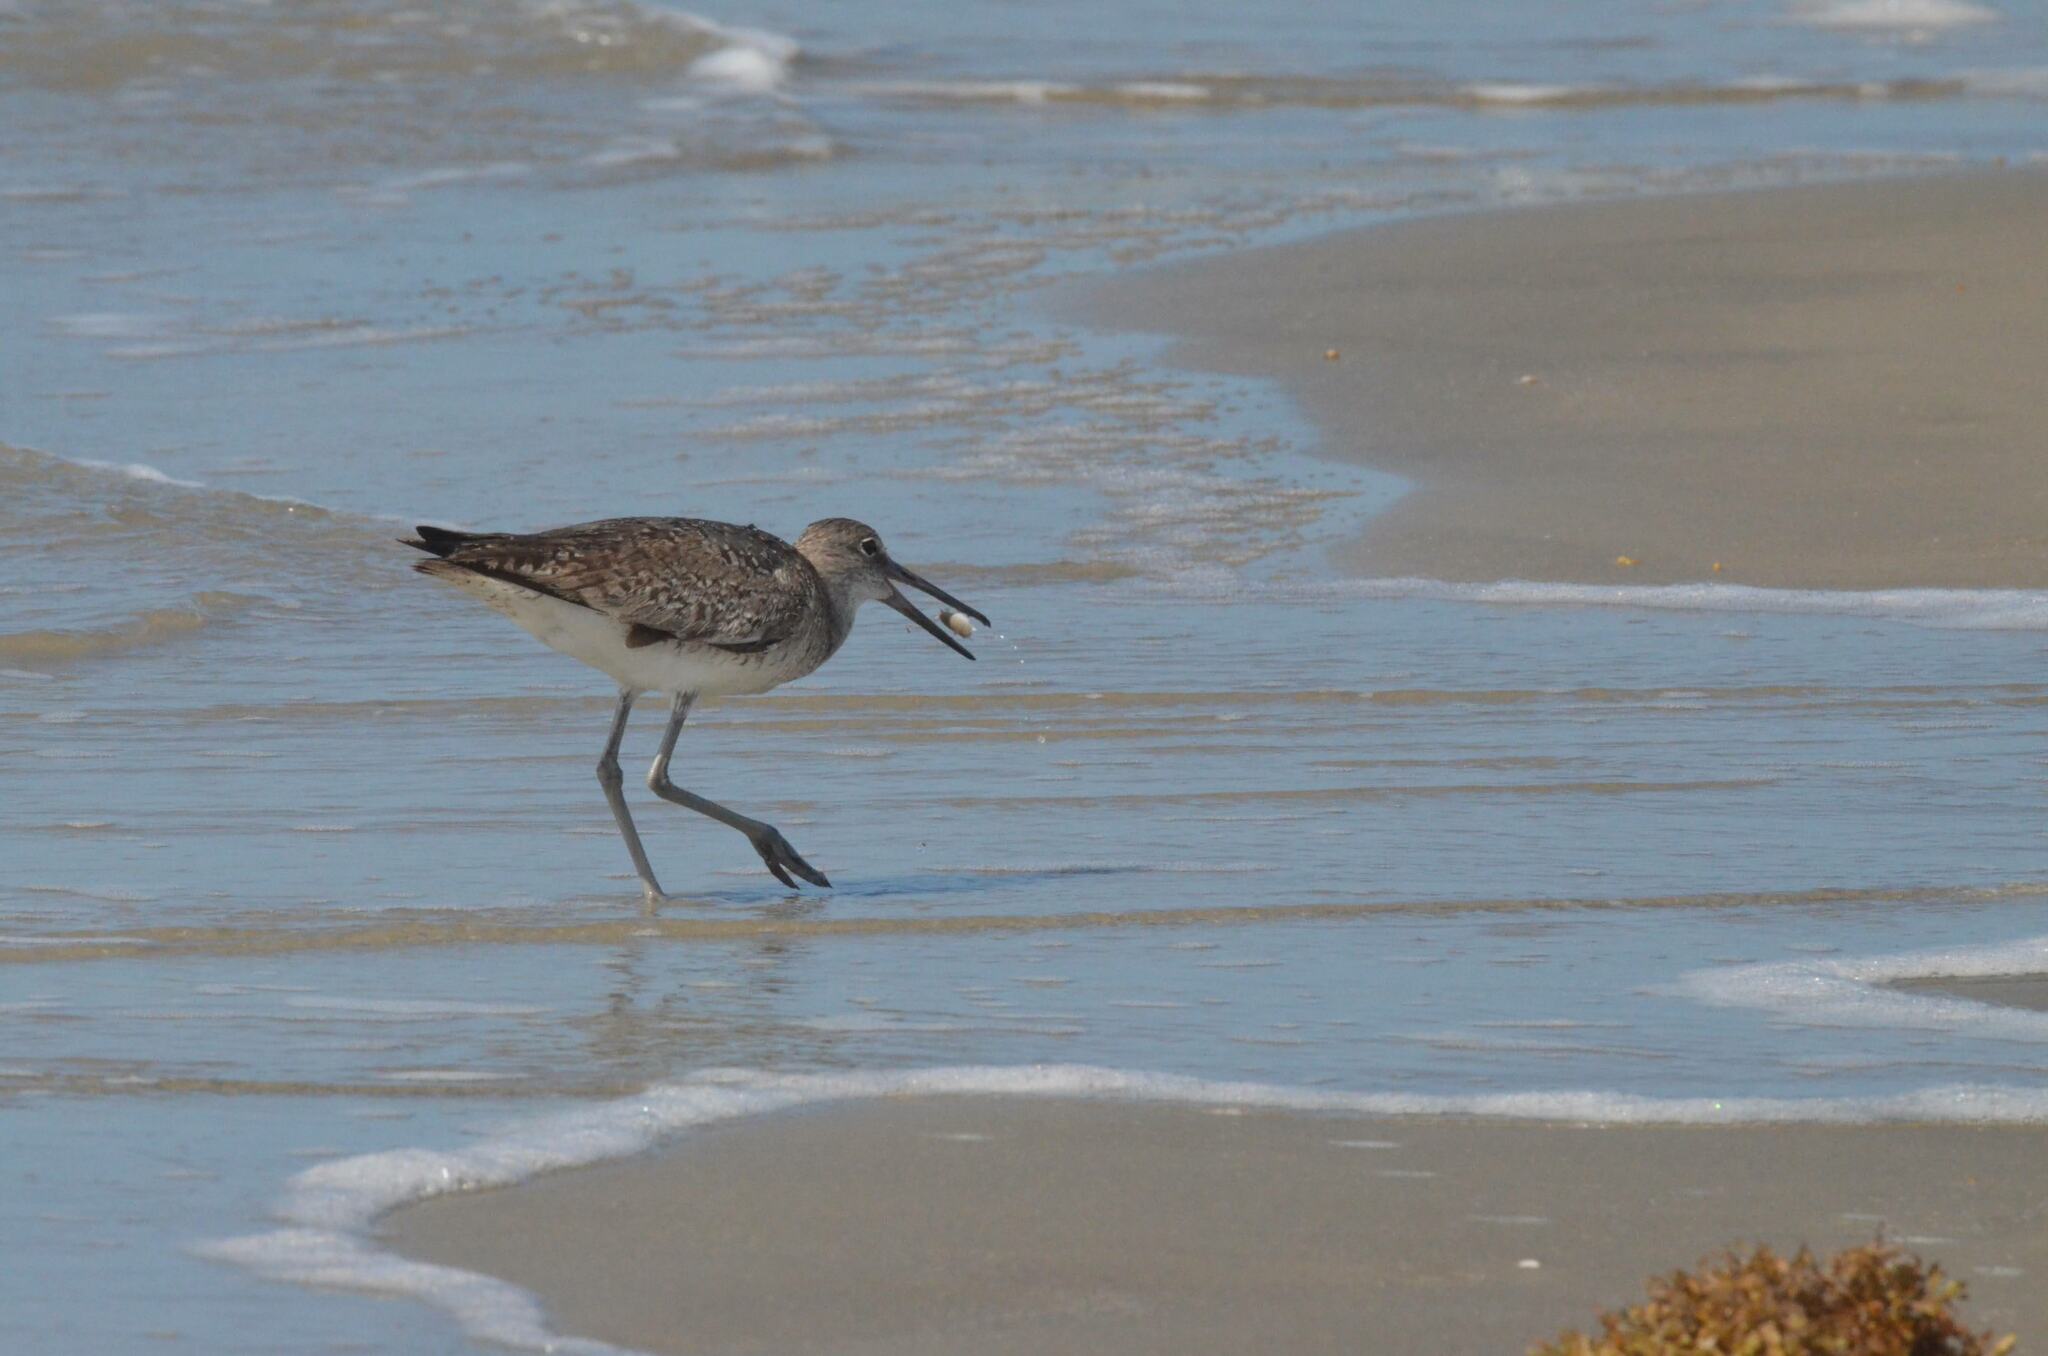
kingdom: Animalia
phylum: Chordata
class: Aves
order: Charadriiformes
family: Scolopacidae
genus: Tringa
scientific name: Tringa semipalmata
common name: Willet
